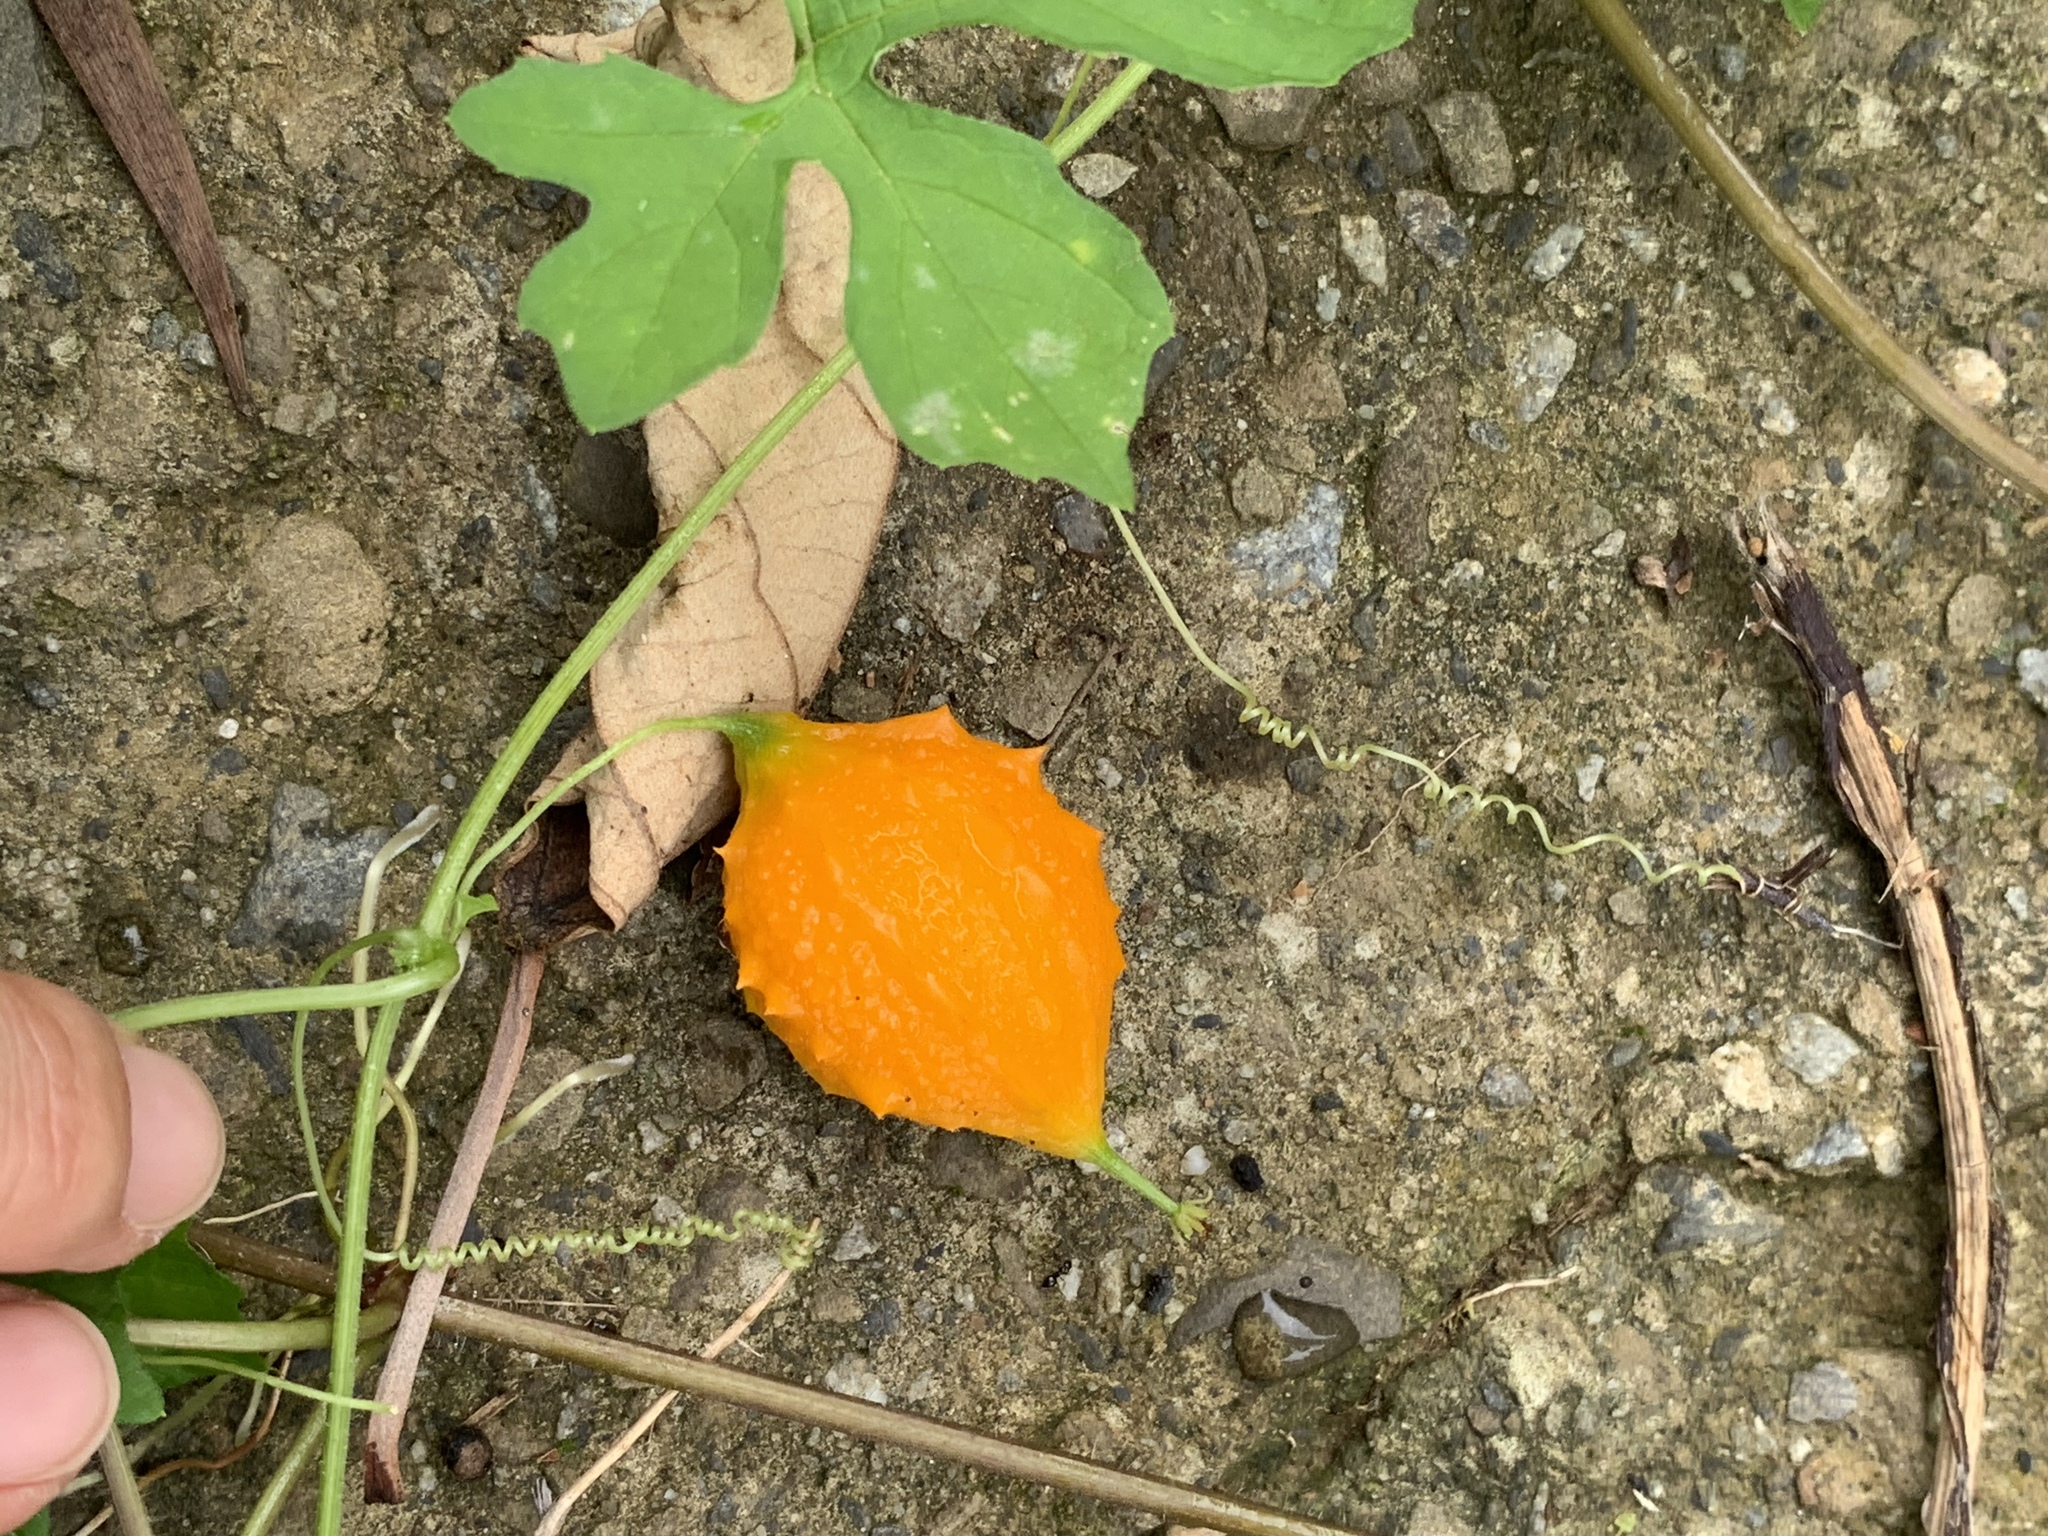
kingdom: Plantae
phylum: Tracheophyta
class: Magnoliopsida
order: Cucurbitales
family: Cucurbitaceae
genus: Momordica
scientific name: Momordica charantia
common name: Balsampear
